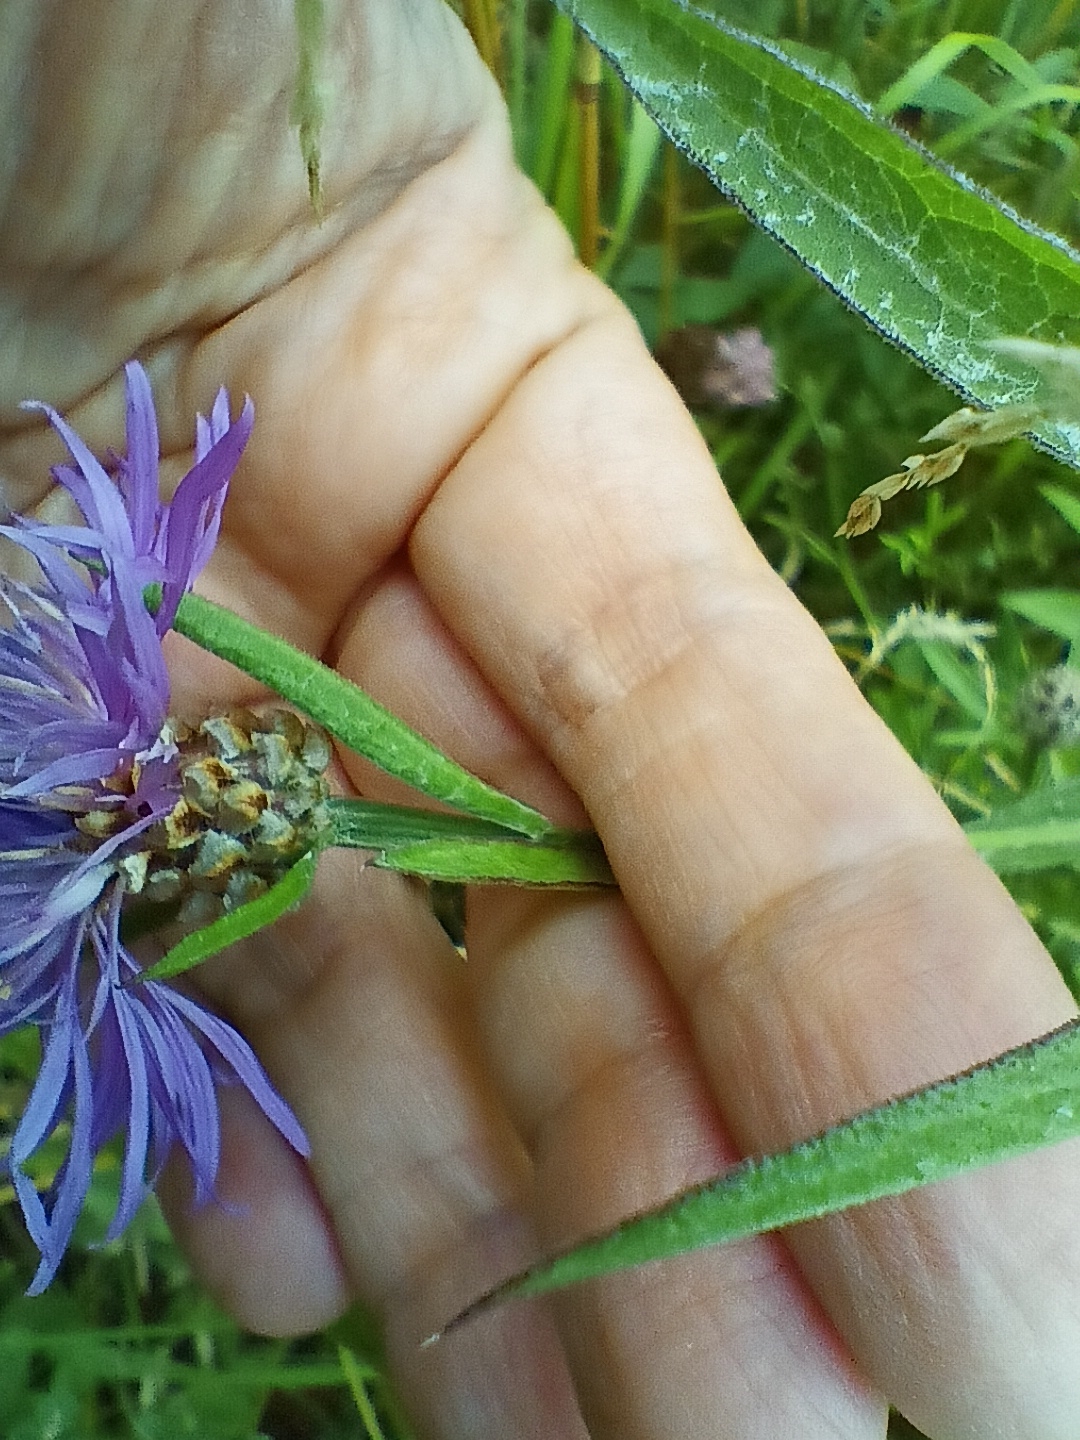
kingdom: Plantae
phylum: Tracheophyta
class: Magnoliopsida
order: Asterales
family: Asteraceae
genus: Centaurea
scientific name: Centaurea jacea
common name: Brown knapweed
